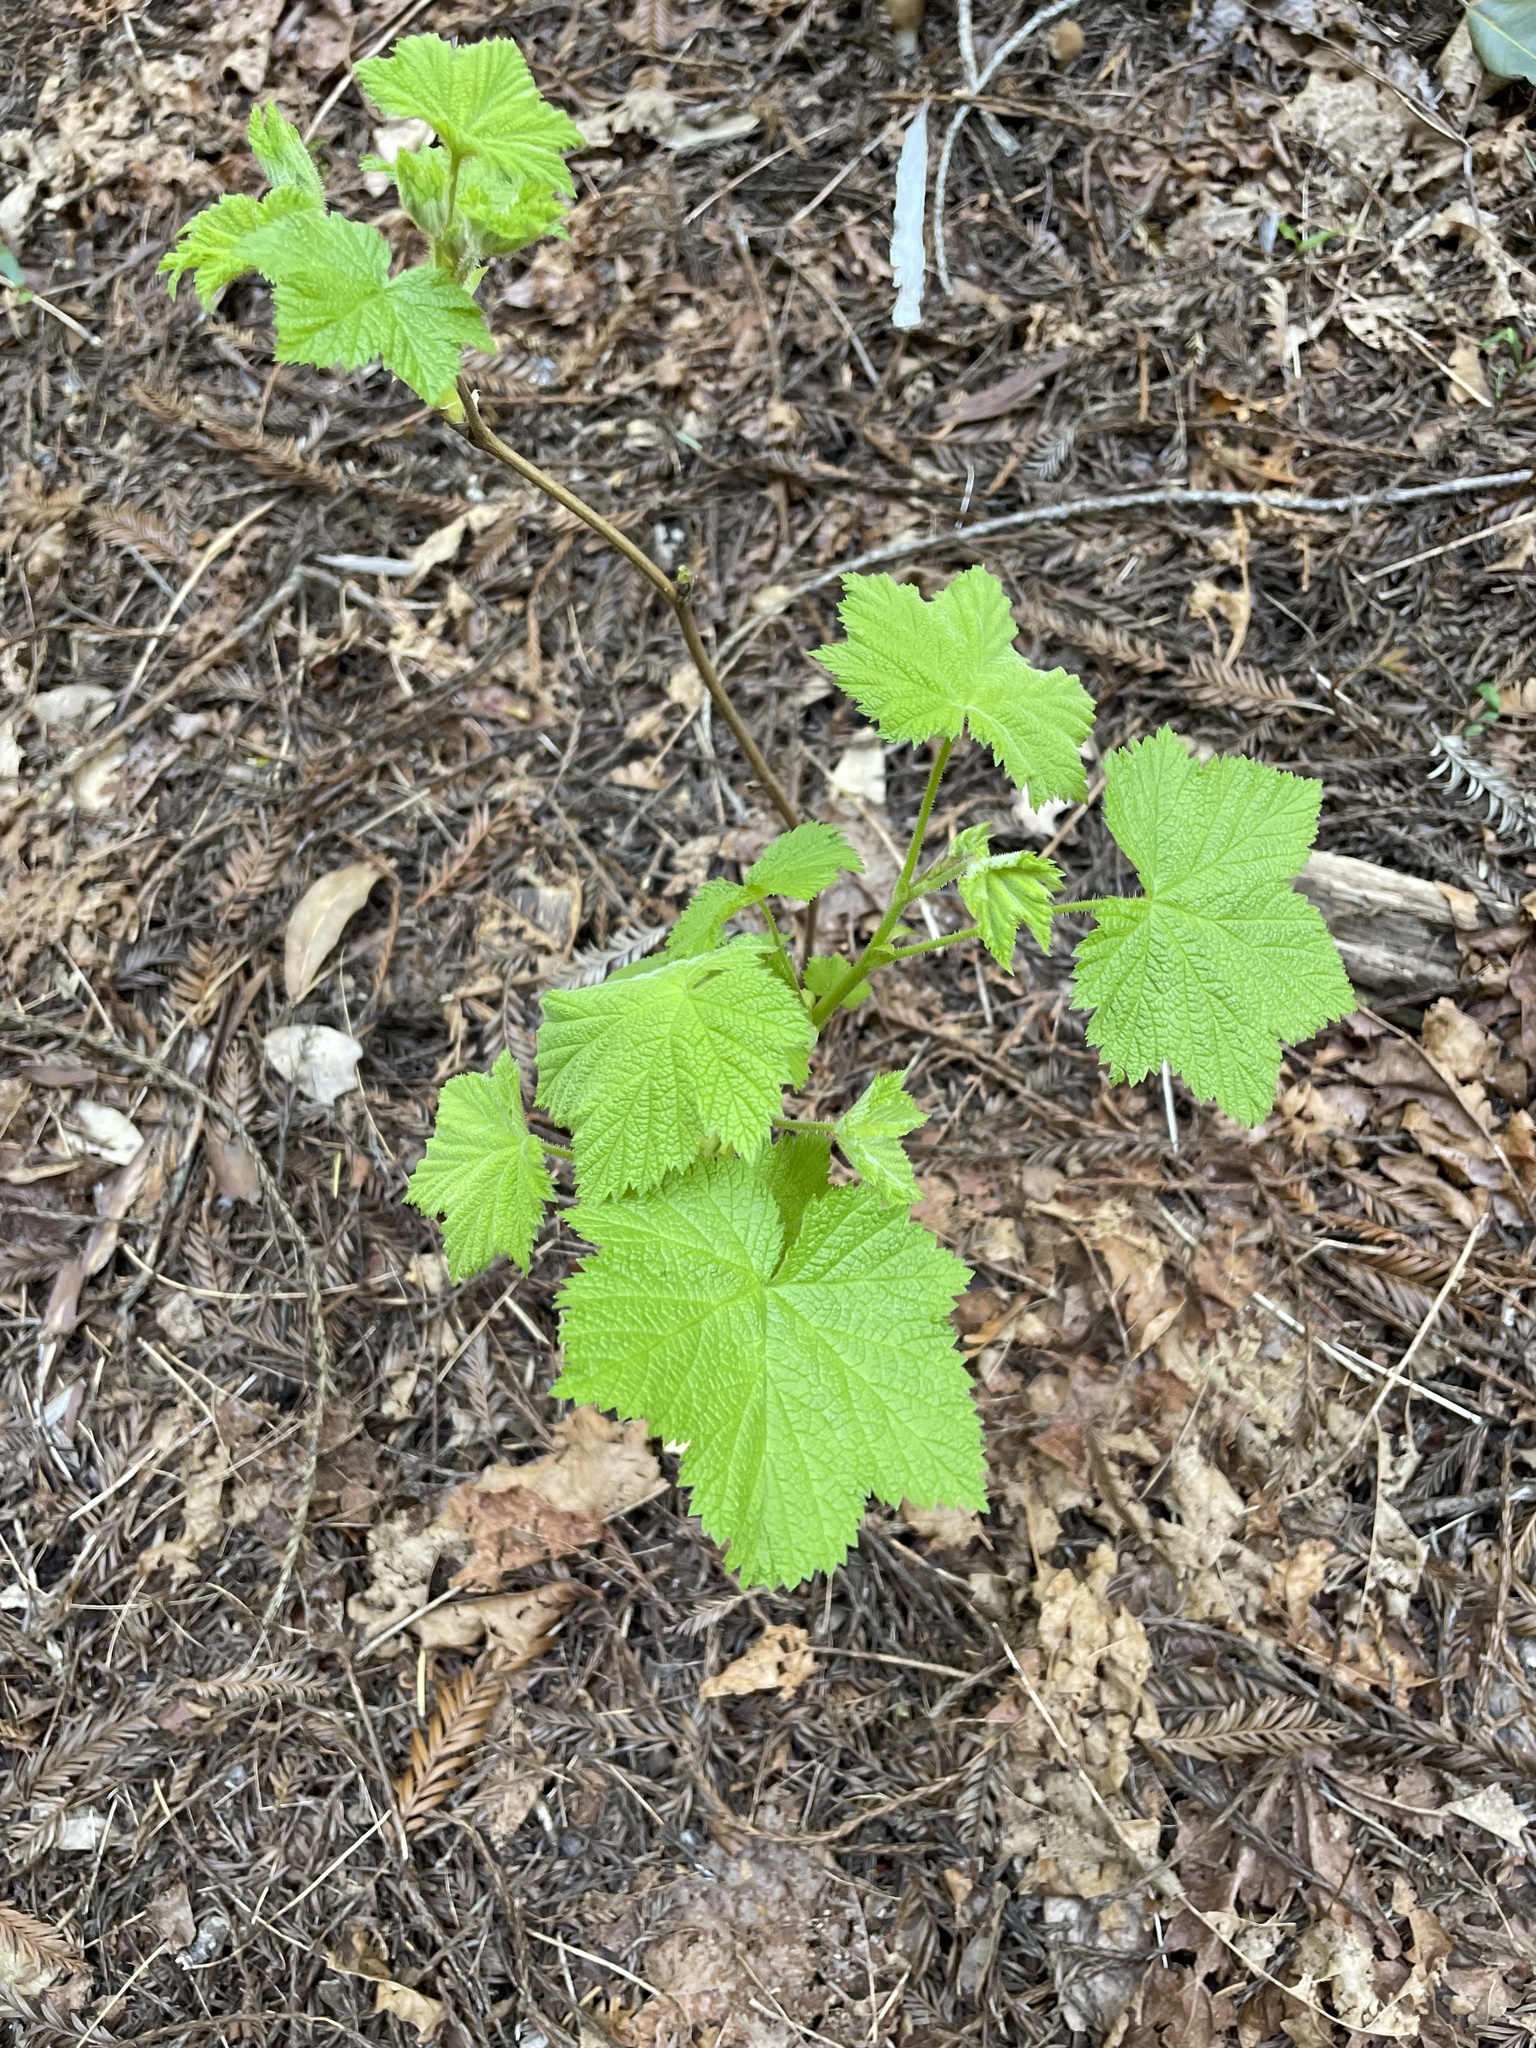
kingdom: Plantae
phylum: Tracheophyta
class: Magnoliopsida
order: Rosales
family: Rosaceae
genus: Rubus
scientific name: Rubus parviflorus
